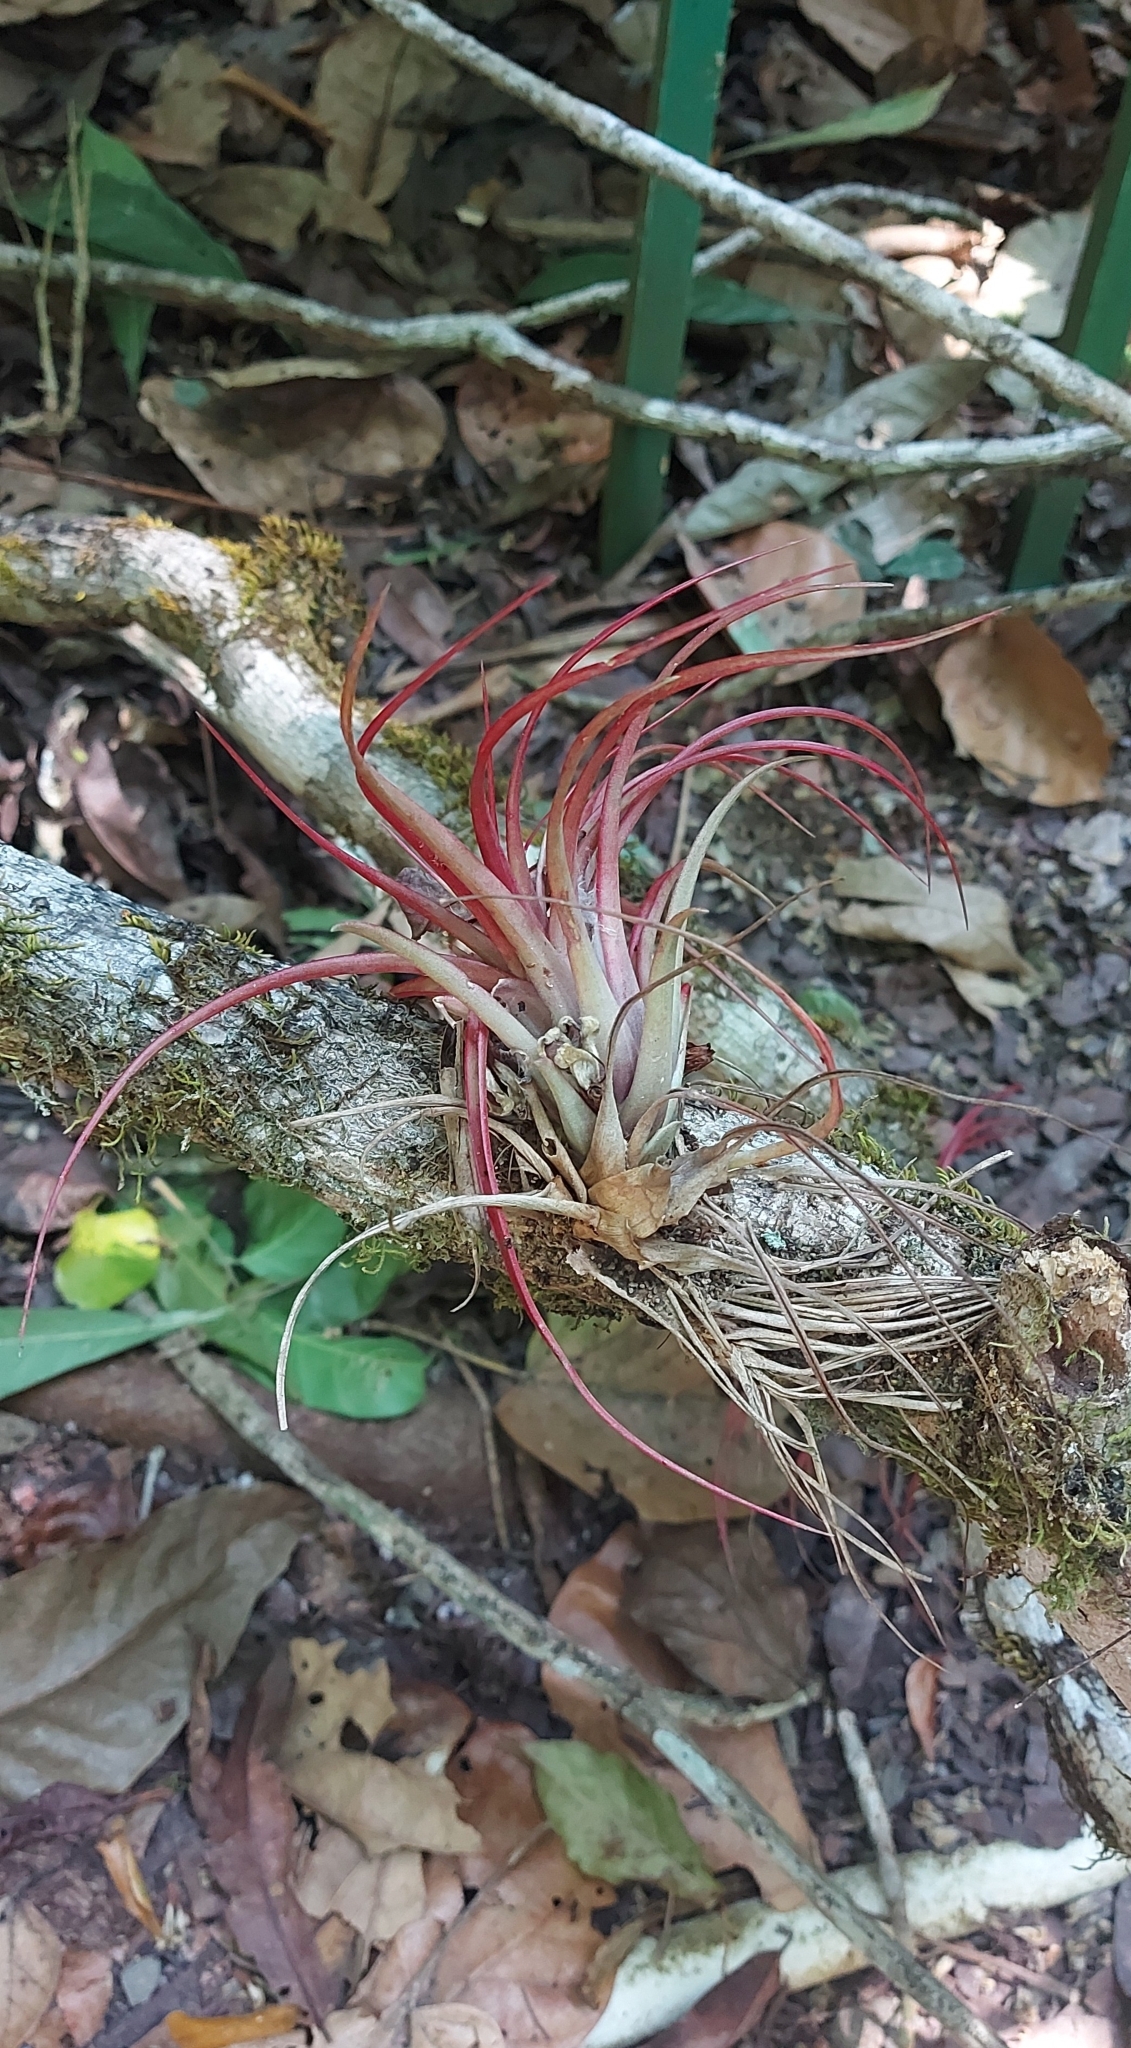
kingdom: Plantae
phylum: Tracheophyta
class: Liliopsida
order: Poales
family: Bromeliaceae
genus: Tillandsia
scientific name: Tillandsia brachycaulos
